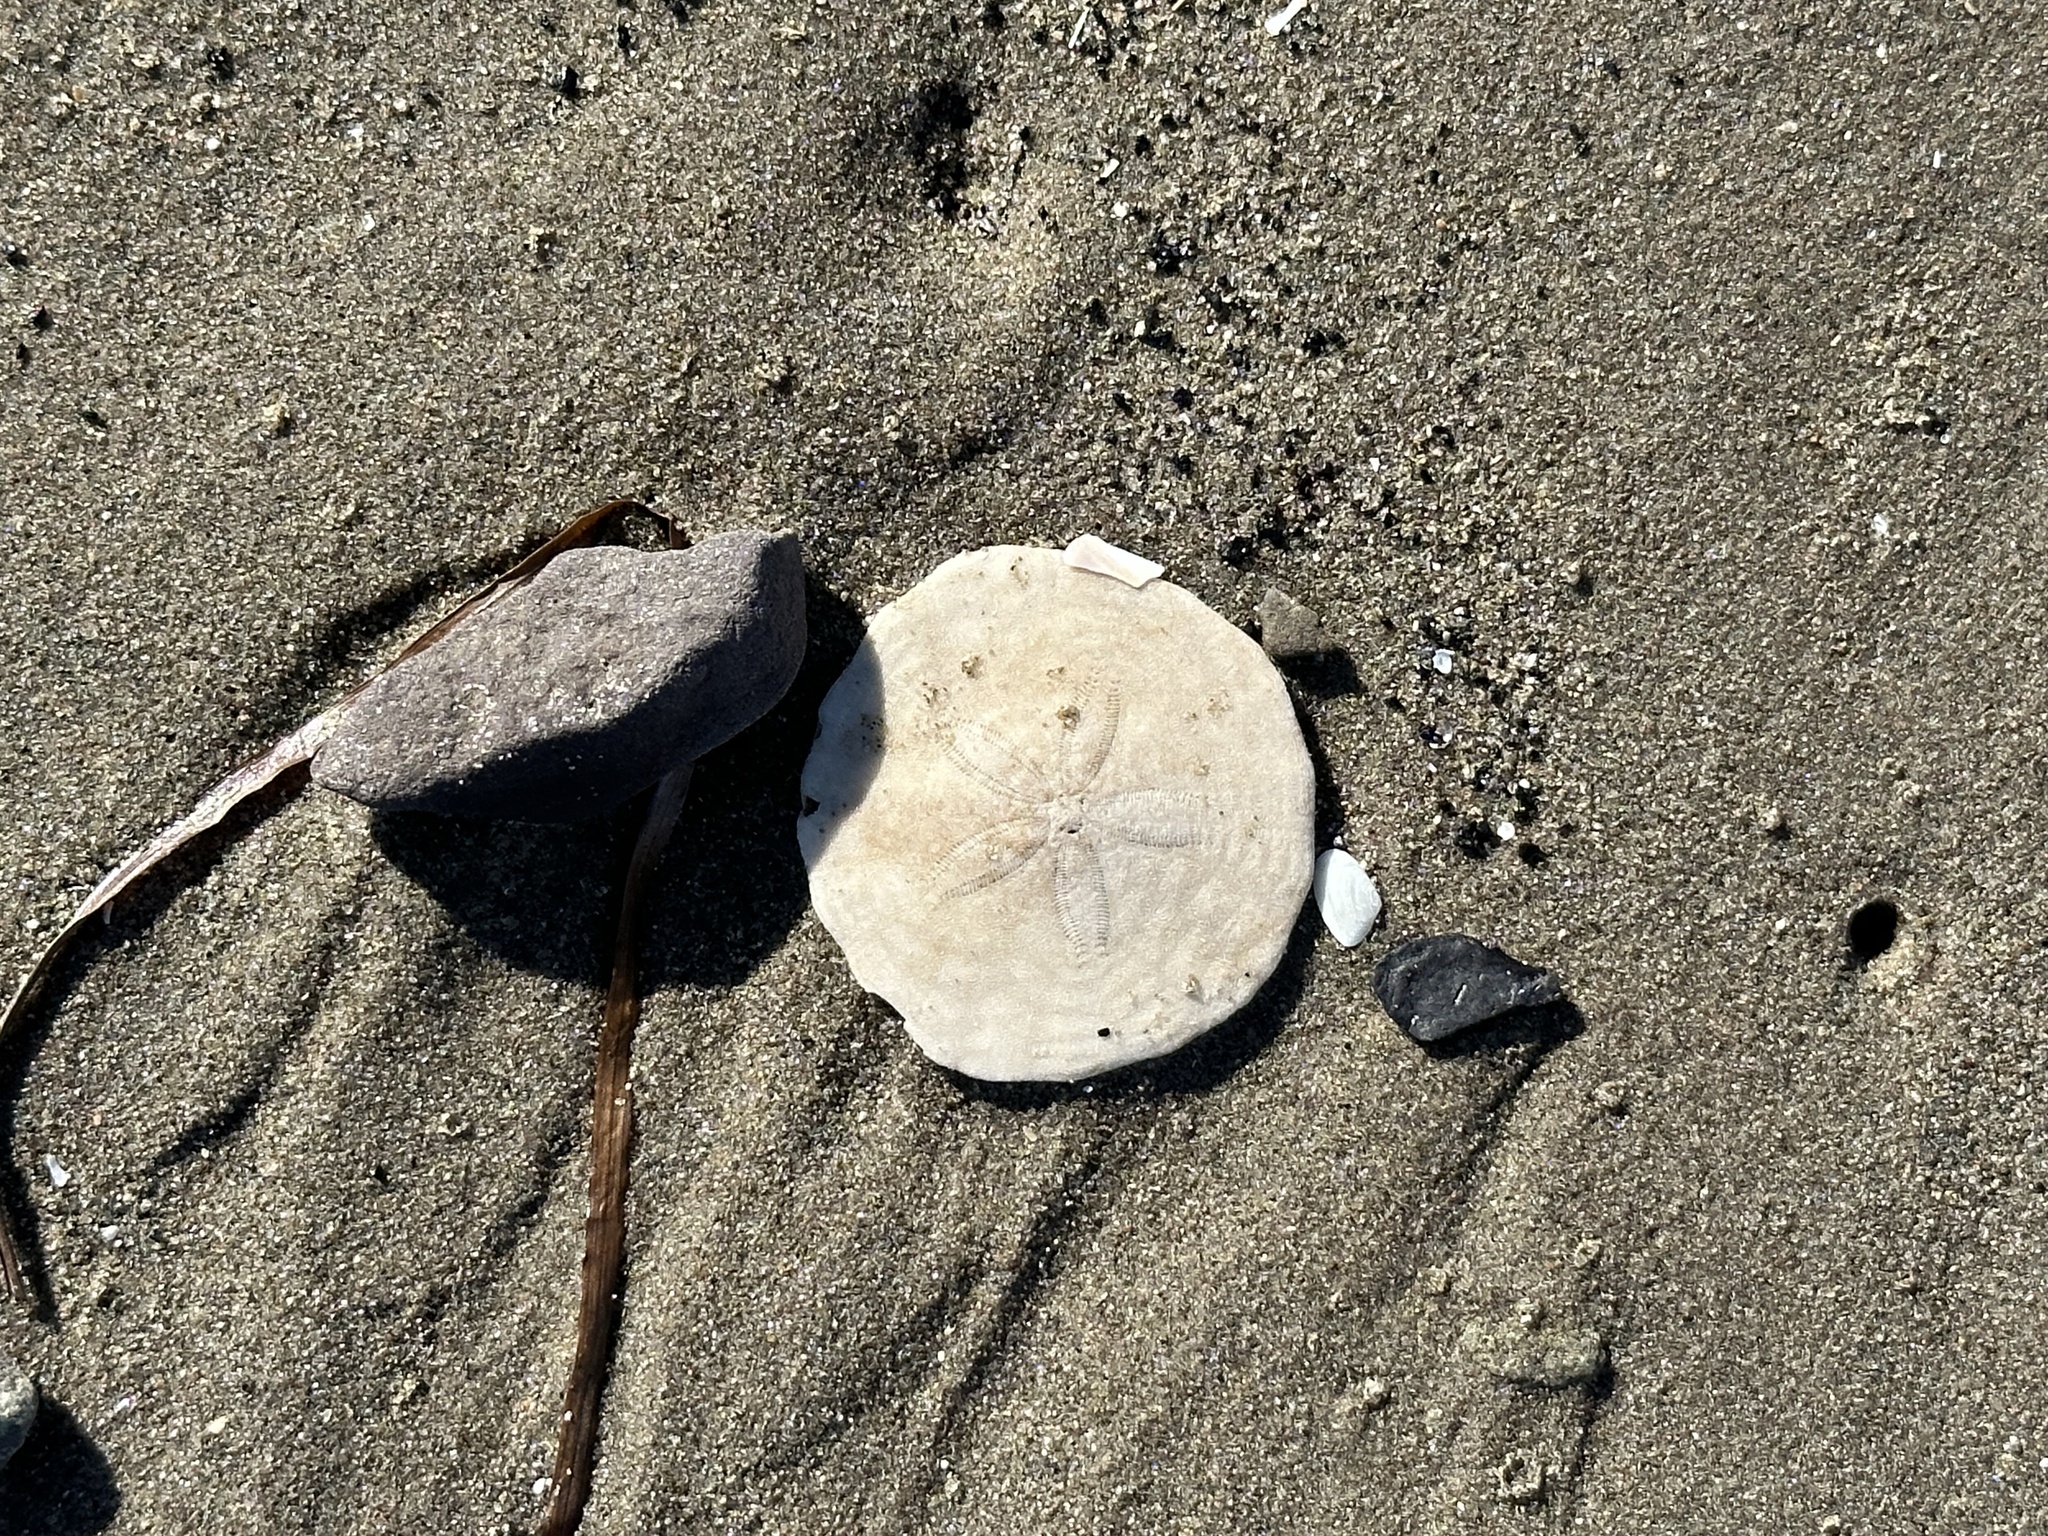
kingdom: Animalia
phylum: Echinodermata
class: Echinoidea
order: Echinolampadacea
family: Echinarachniidae
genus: Echinarachnius
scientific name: Echinarachnius parma
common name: Common sand dollar
